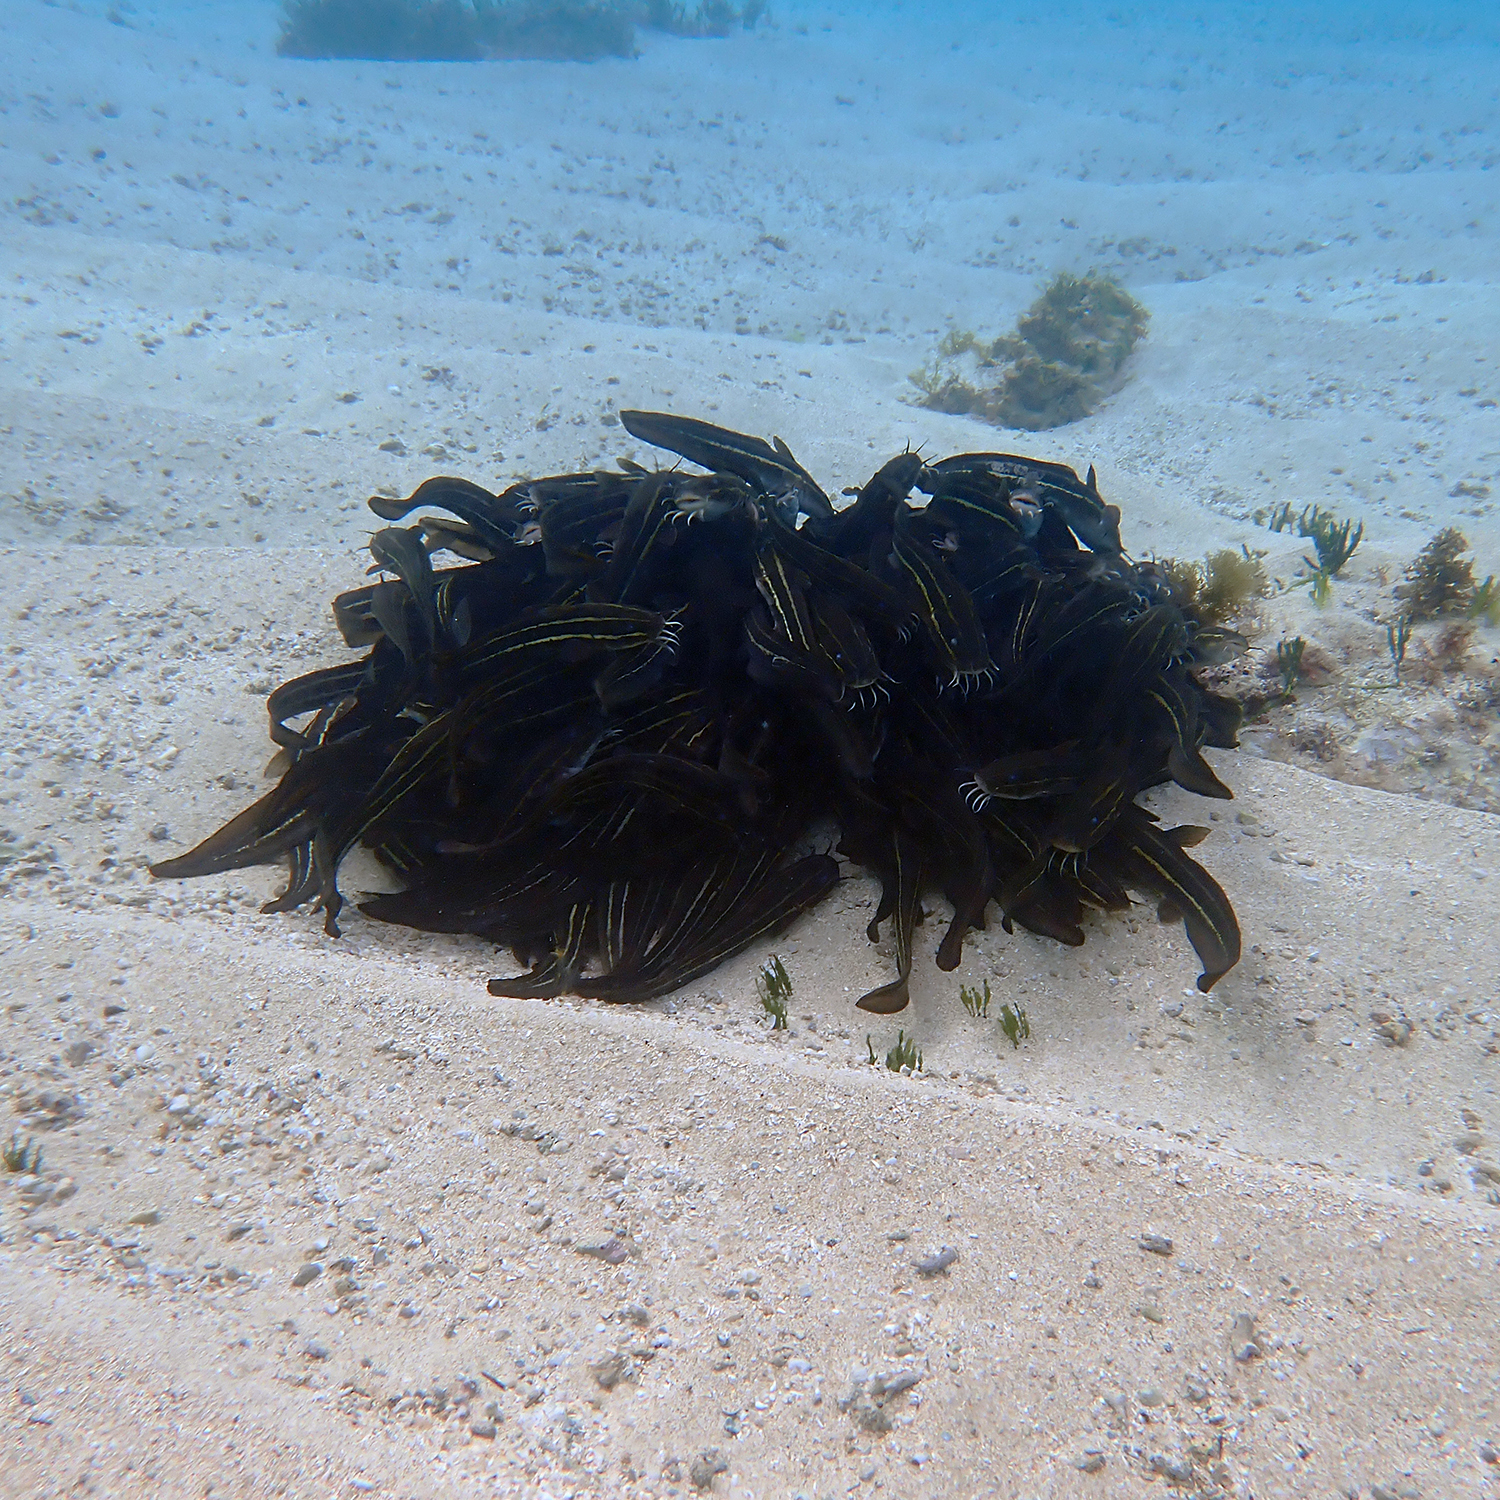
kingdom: Animalia
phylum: Chordata
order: Siluriformes
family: Plotosidae
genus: Plotosus
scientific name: Plotosus lineatus
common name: Striped eel catfish
